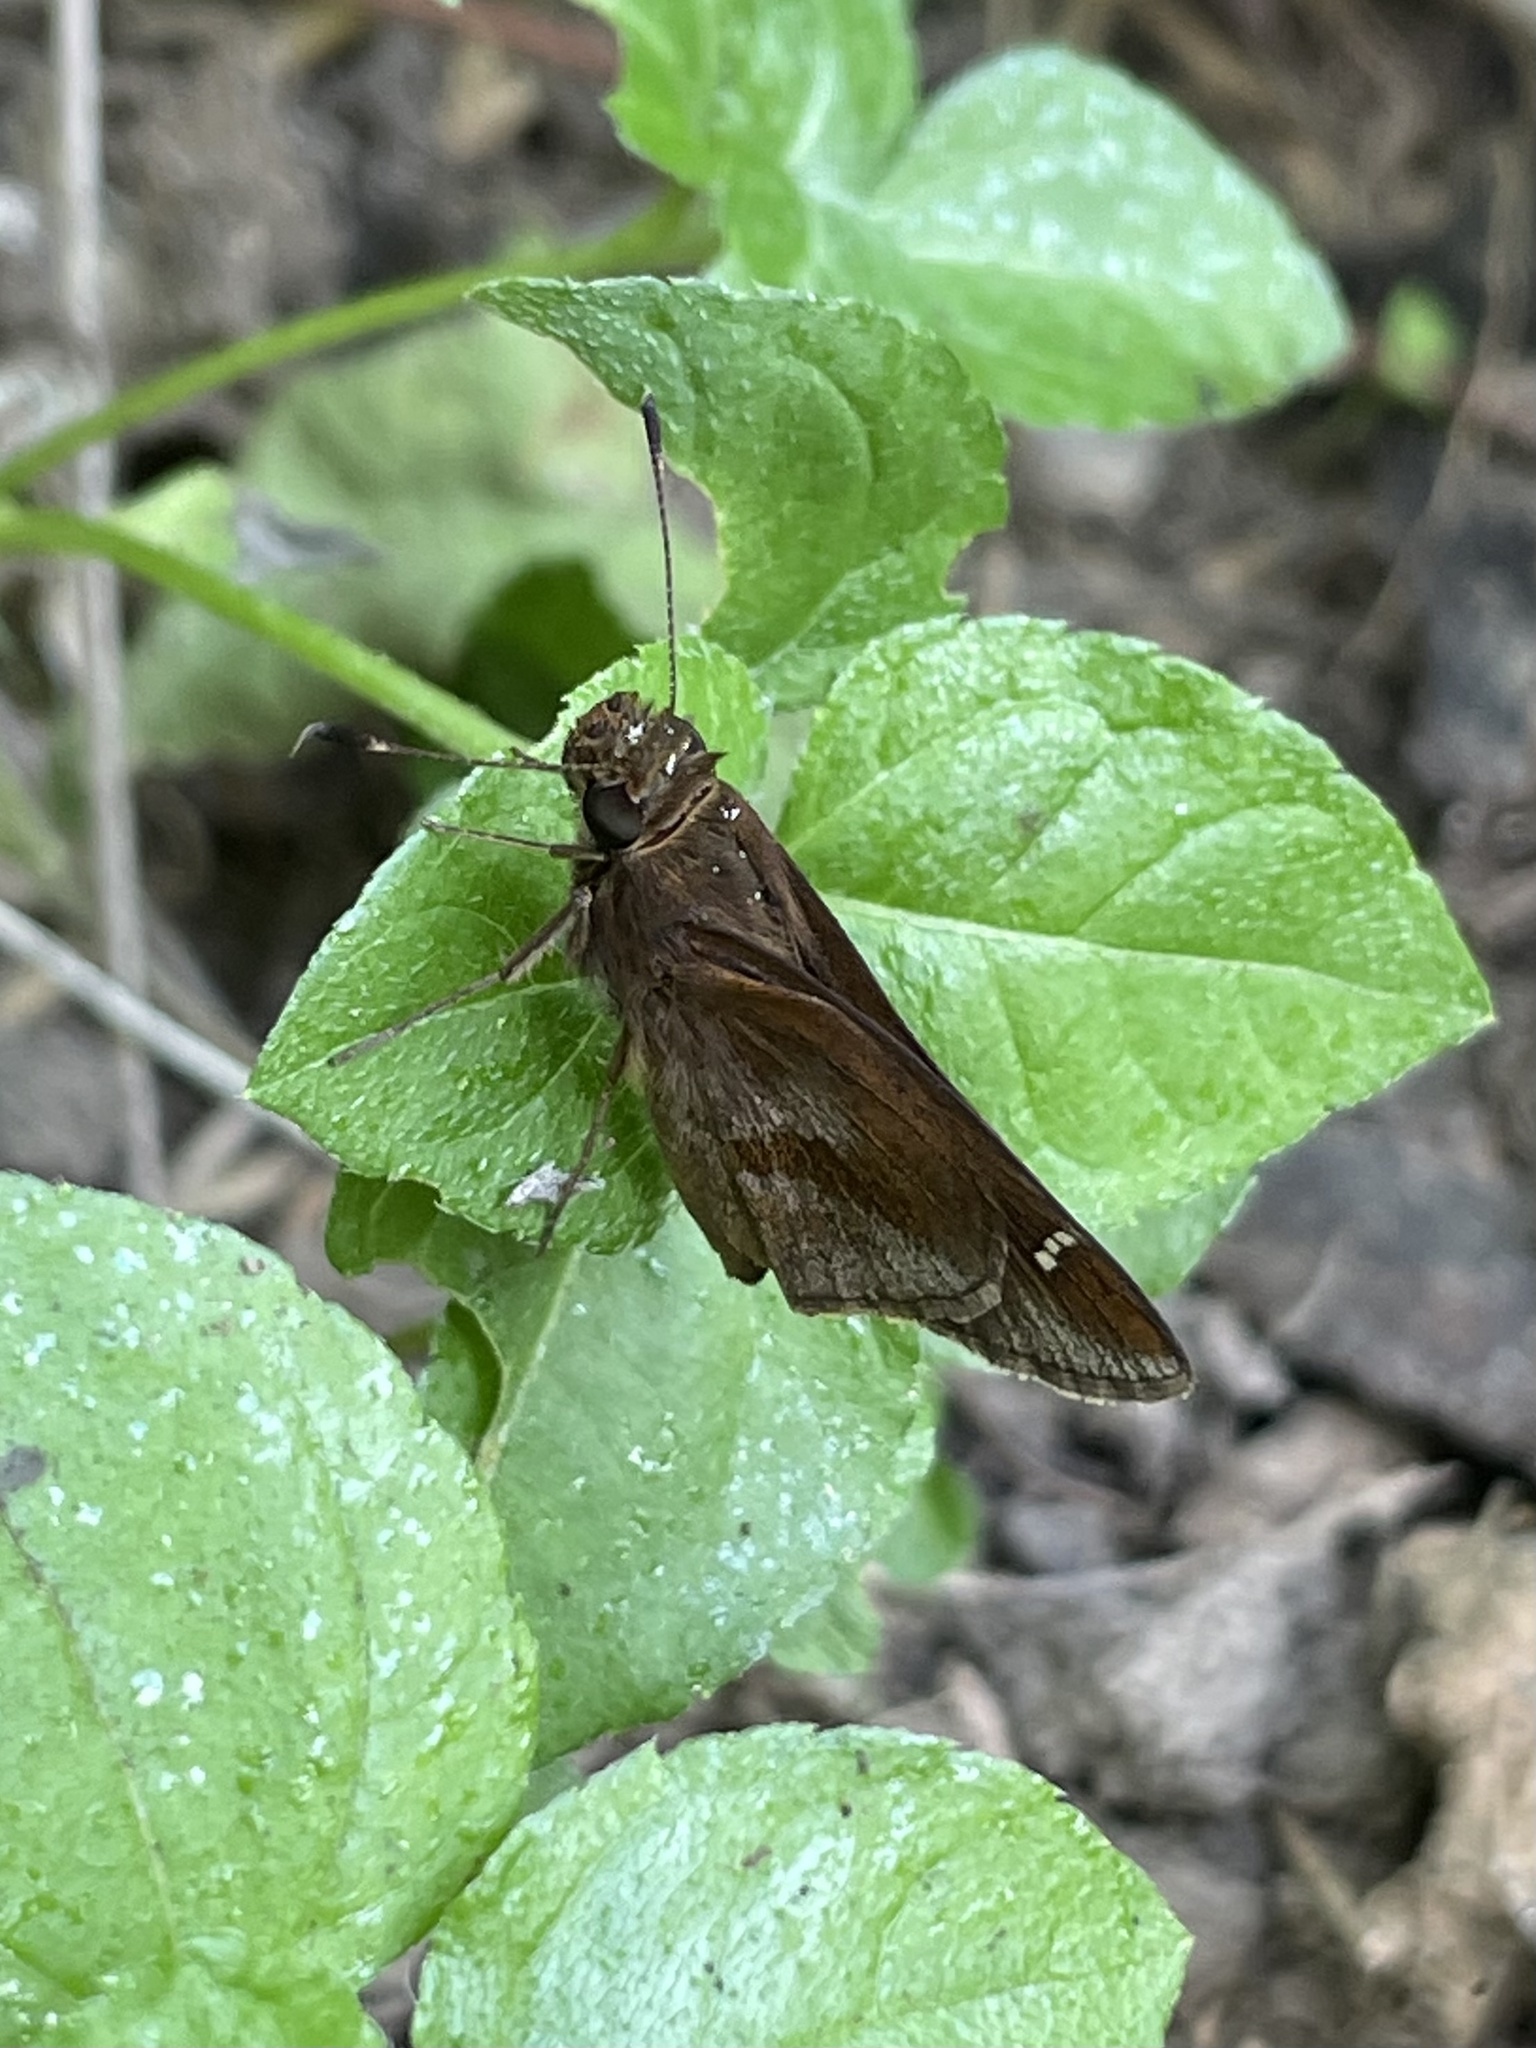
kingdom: Animalia
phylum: Arthropoda
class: Insecta
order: Lepidoptera
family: Hesperiidae
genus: Lerema
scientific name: Lerema accius
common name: Clouded skipper
